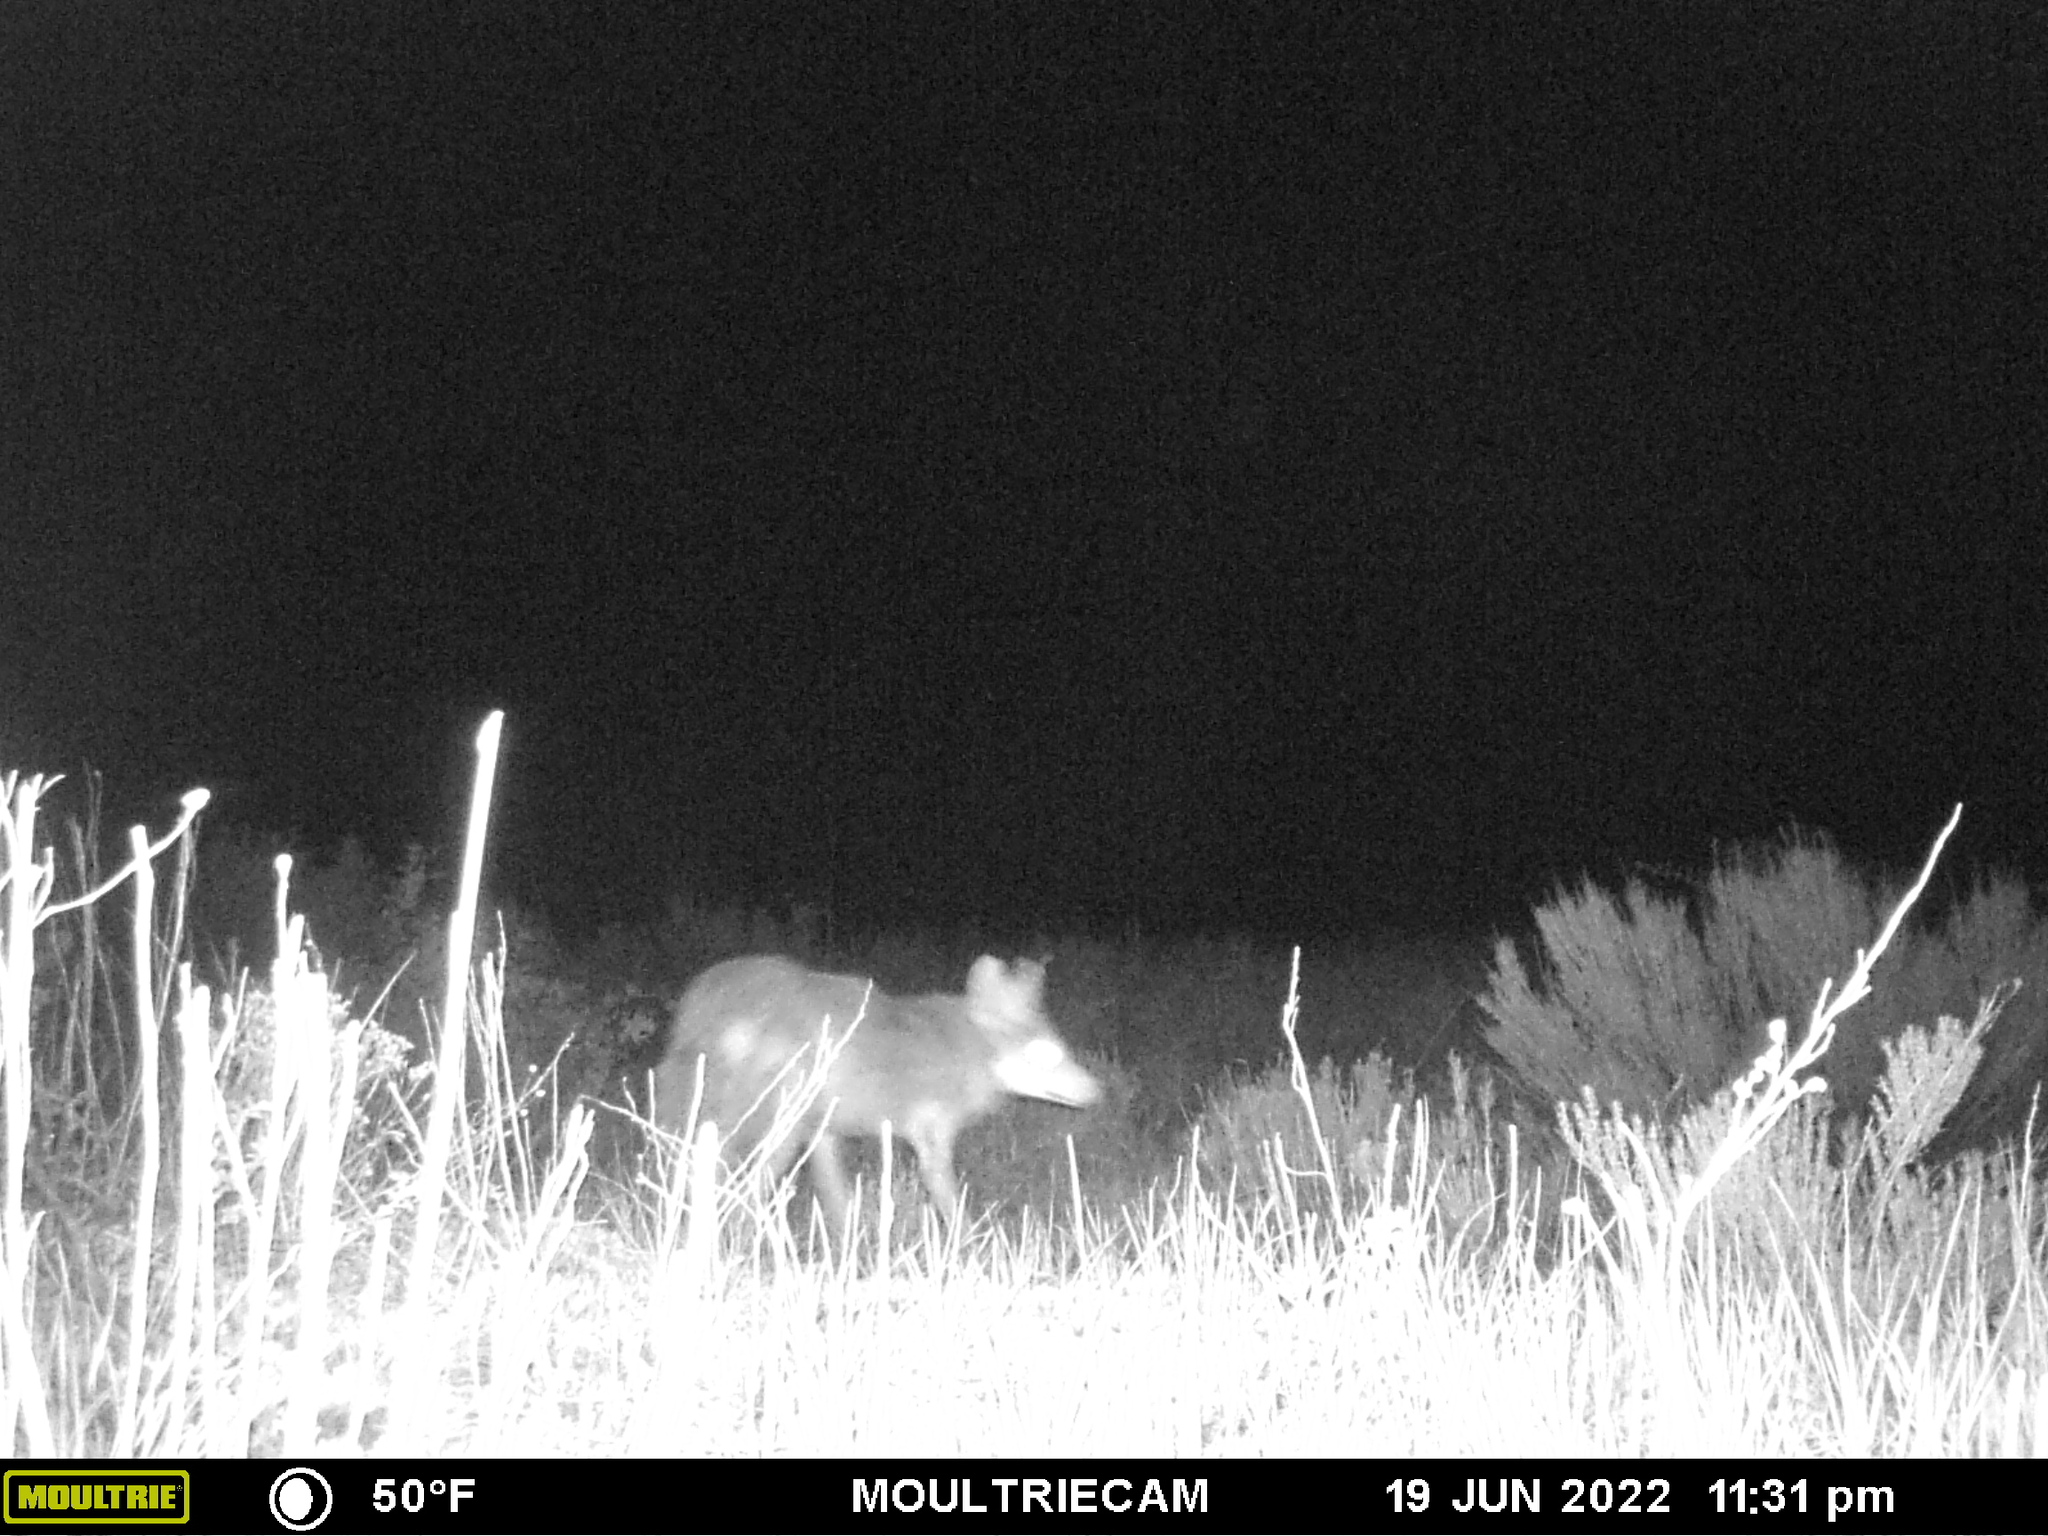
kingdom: Animalia
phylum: Chordata
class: Mammalia
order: Carnivora
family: Canidae
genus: Canis
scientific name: Canis latrans
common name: Coyote
